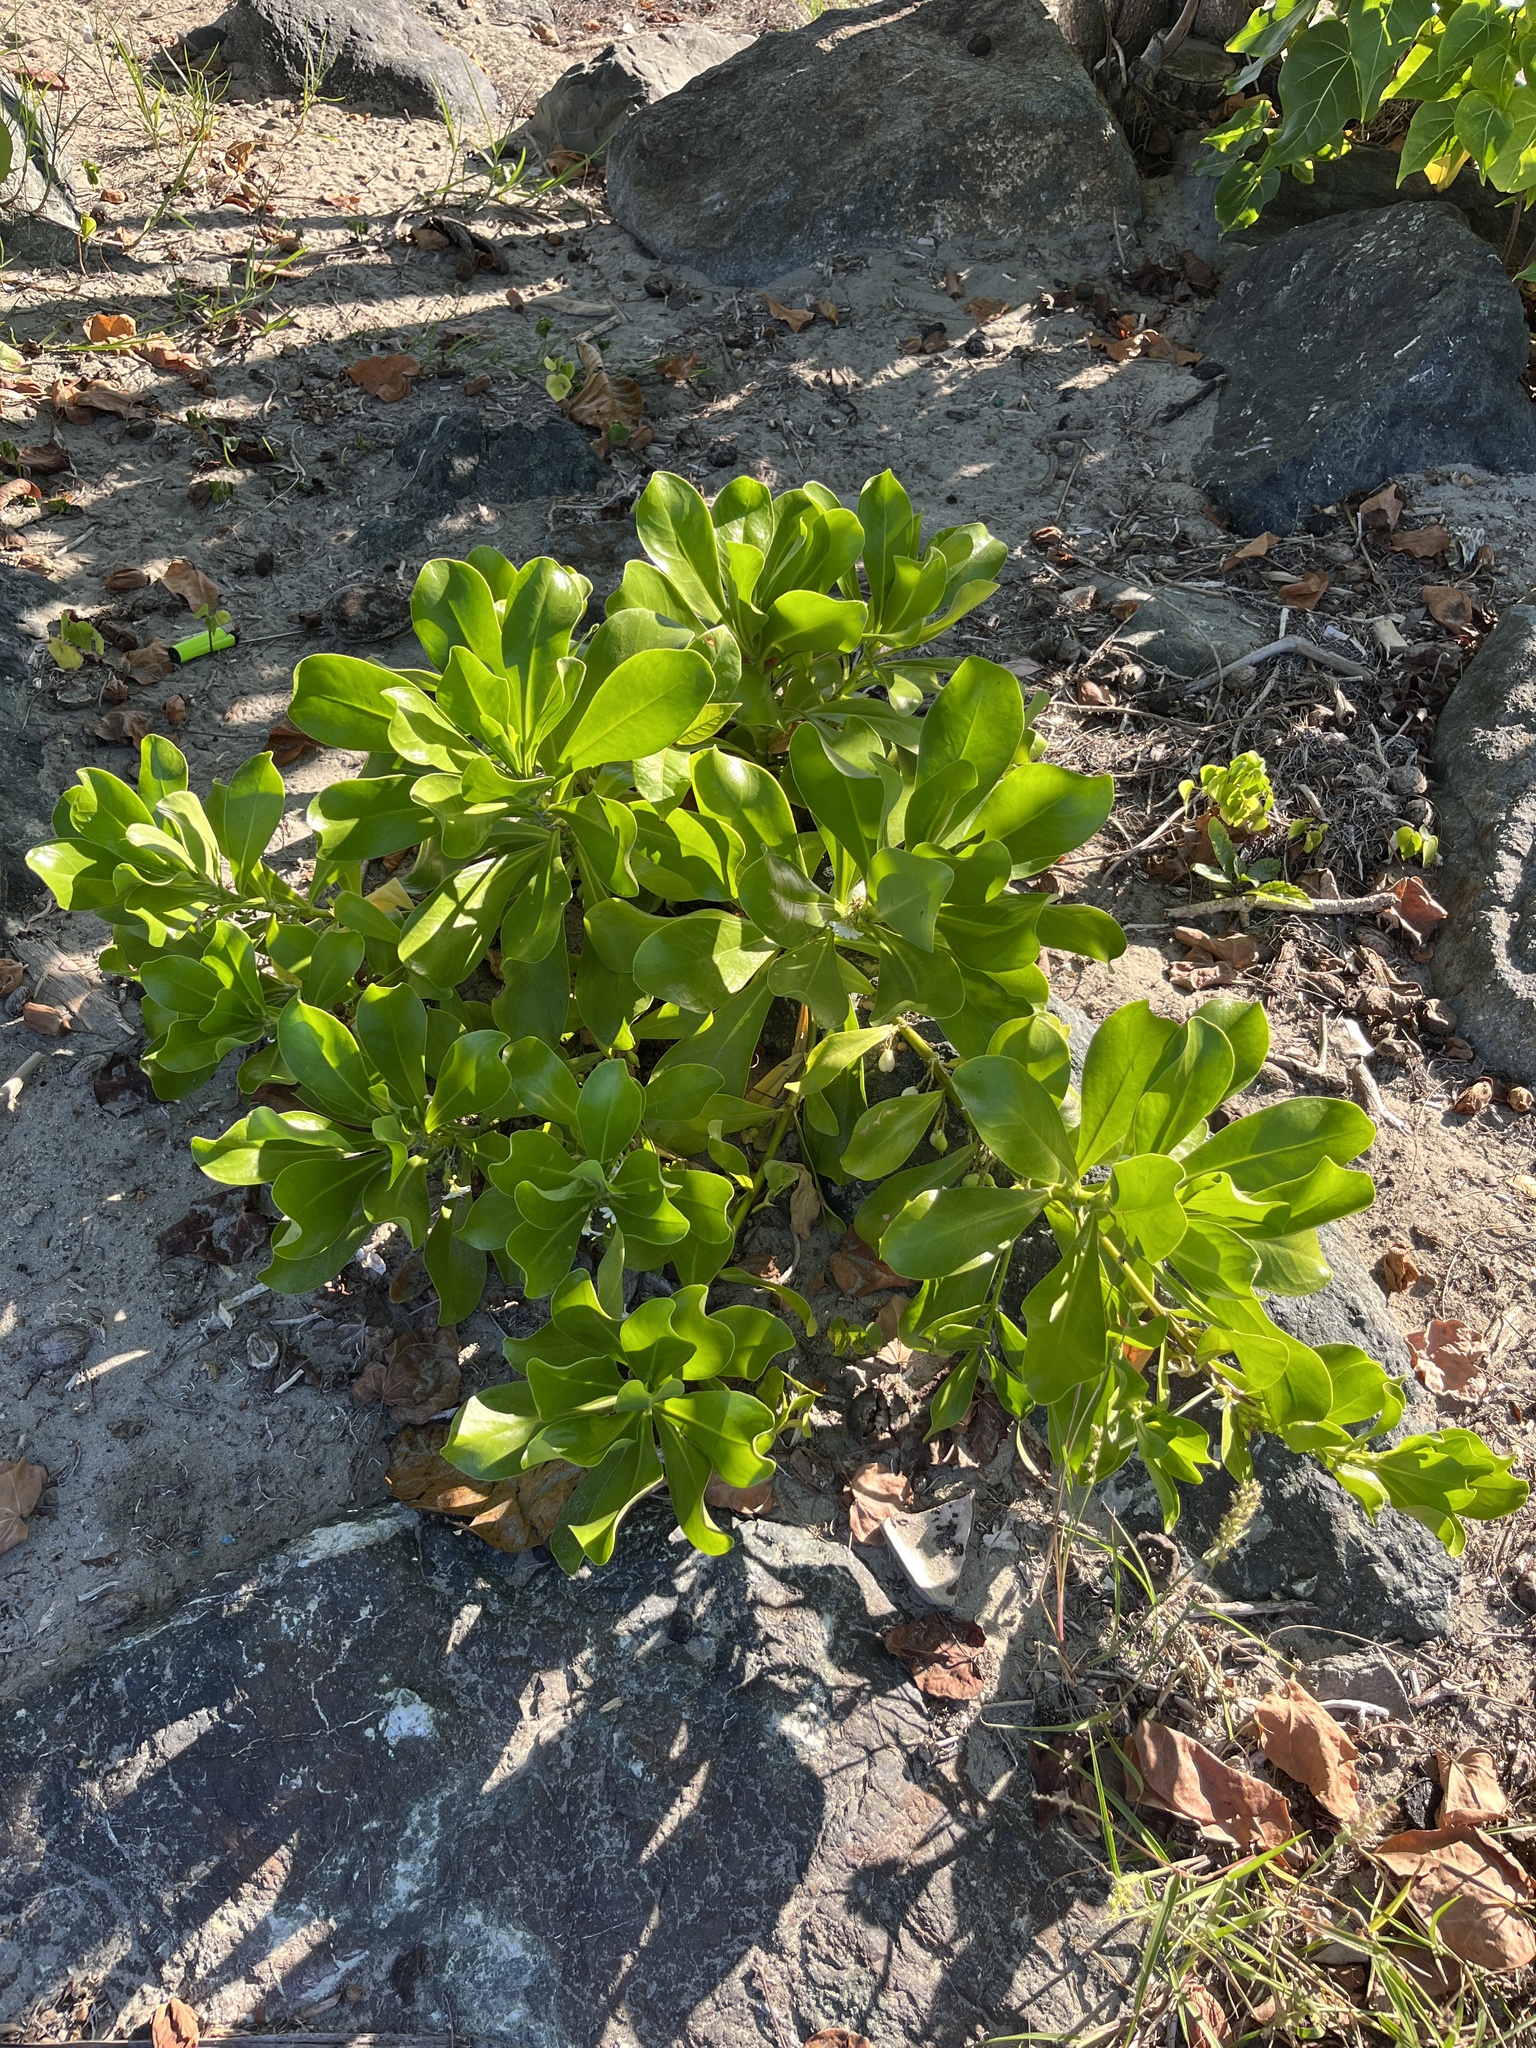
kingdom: Plantae
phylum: Tracheophyta
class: Magnoliopsida
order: Asterales
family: Goodeniaceae
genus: Scaevola
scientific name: Scaevola taccada
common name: Sea lettucetree
